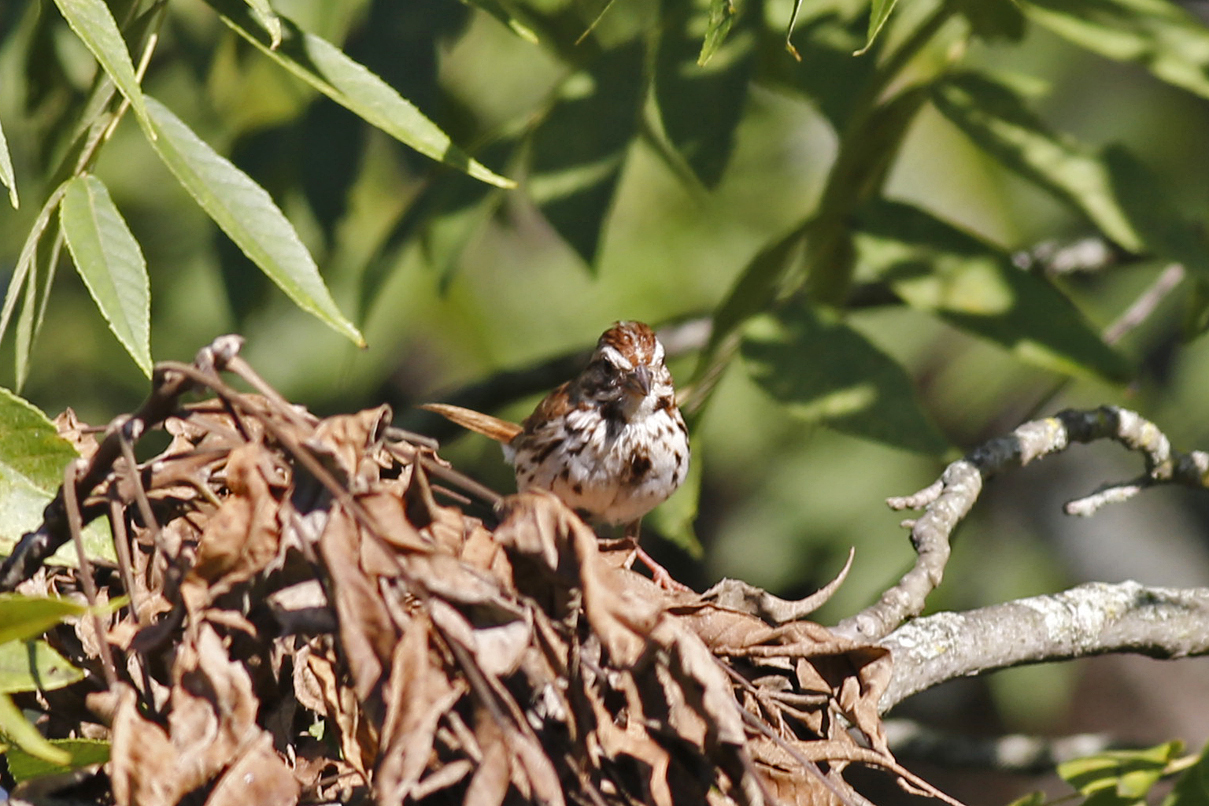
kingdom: Animalia
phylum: Chordata
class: Aves
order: Passeriformes
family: Passerellidae
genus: Melospiza
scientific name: Melospiza melodia
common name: Song sparrow
